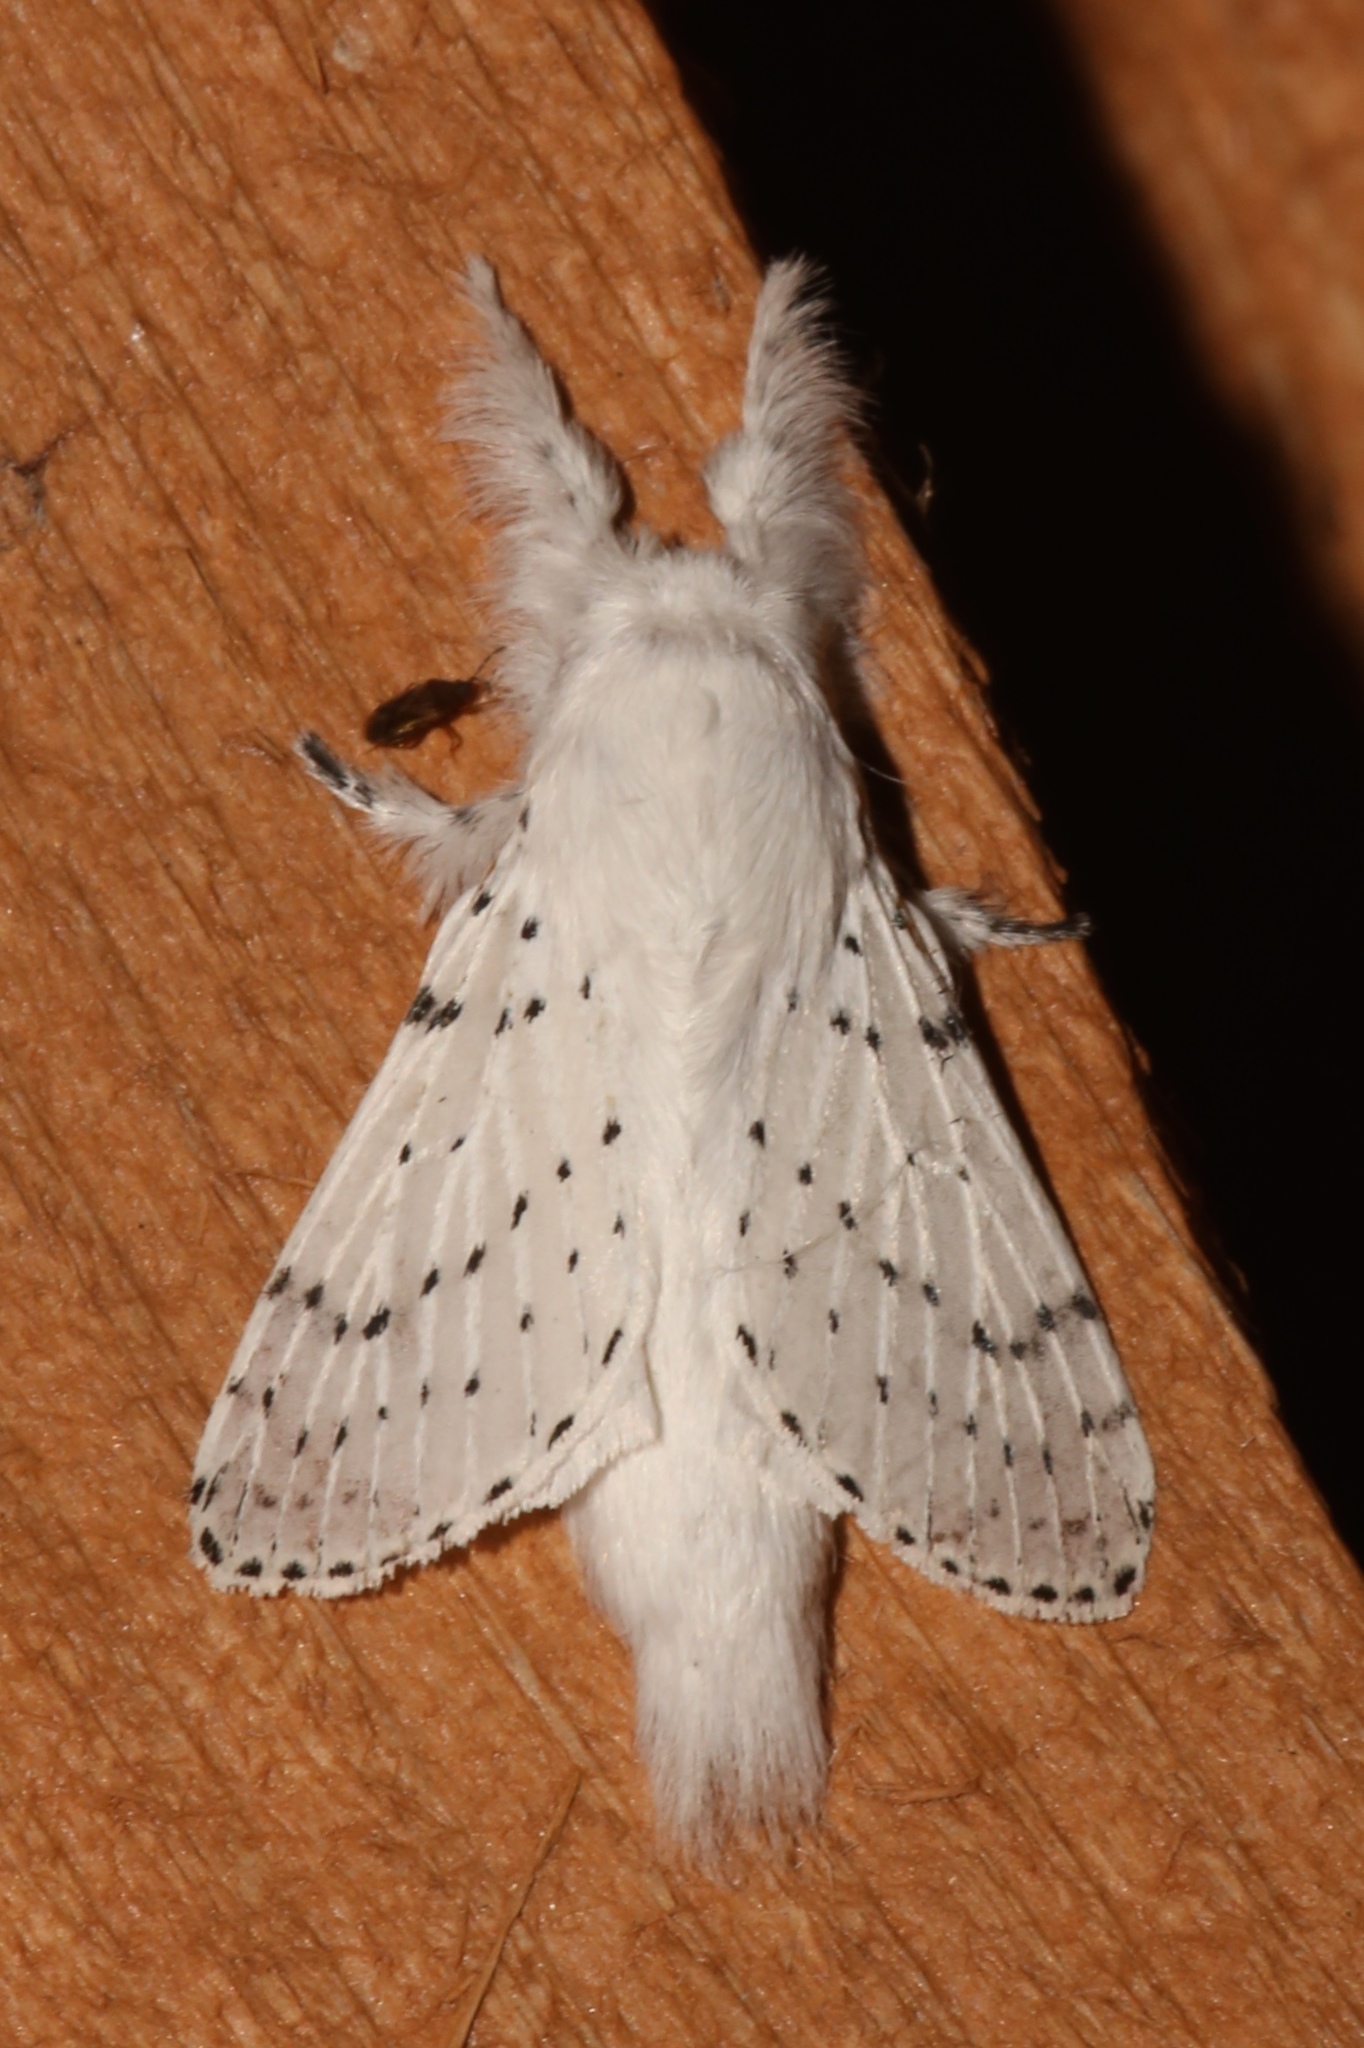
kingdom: Animalia
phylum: Arthropoda
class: Insecta
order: Lepidoptera
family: Lasiocampidae
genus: Artace
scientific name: Artace cribrarius
